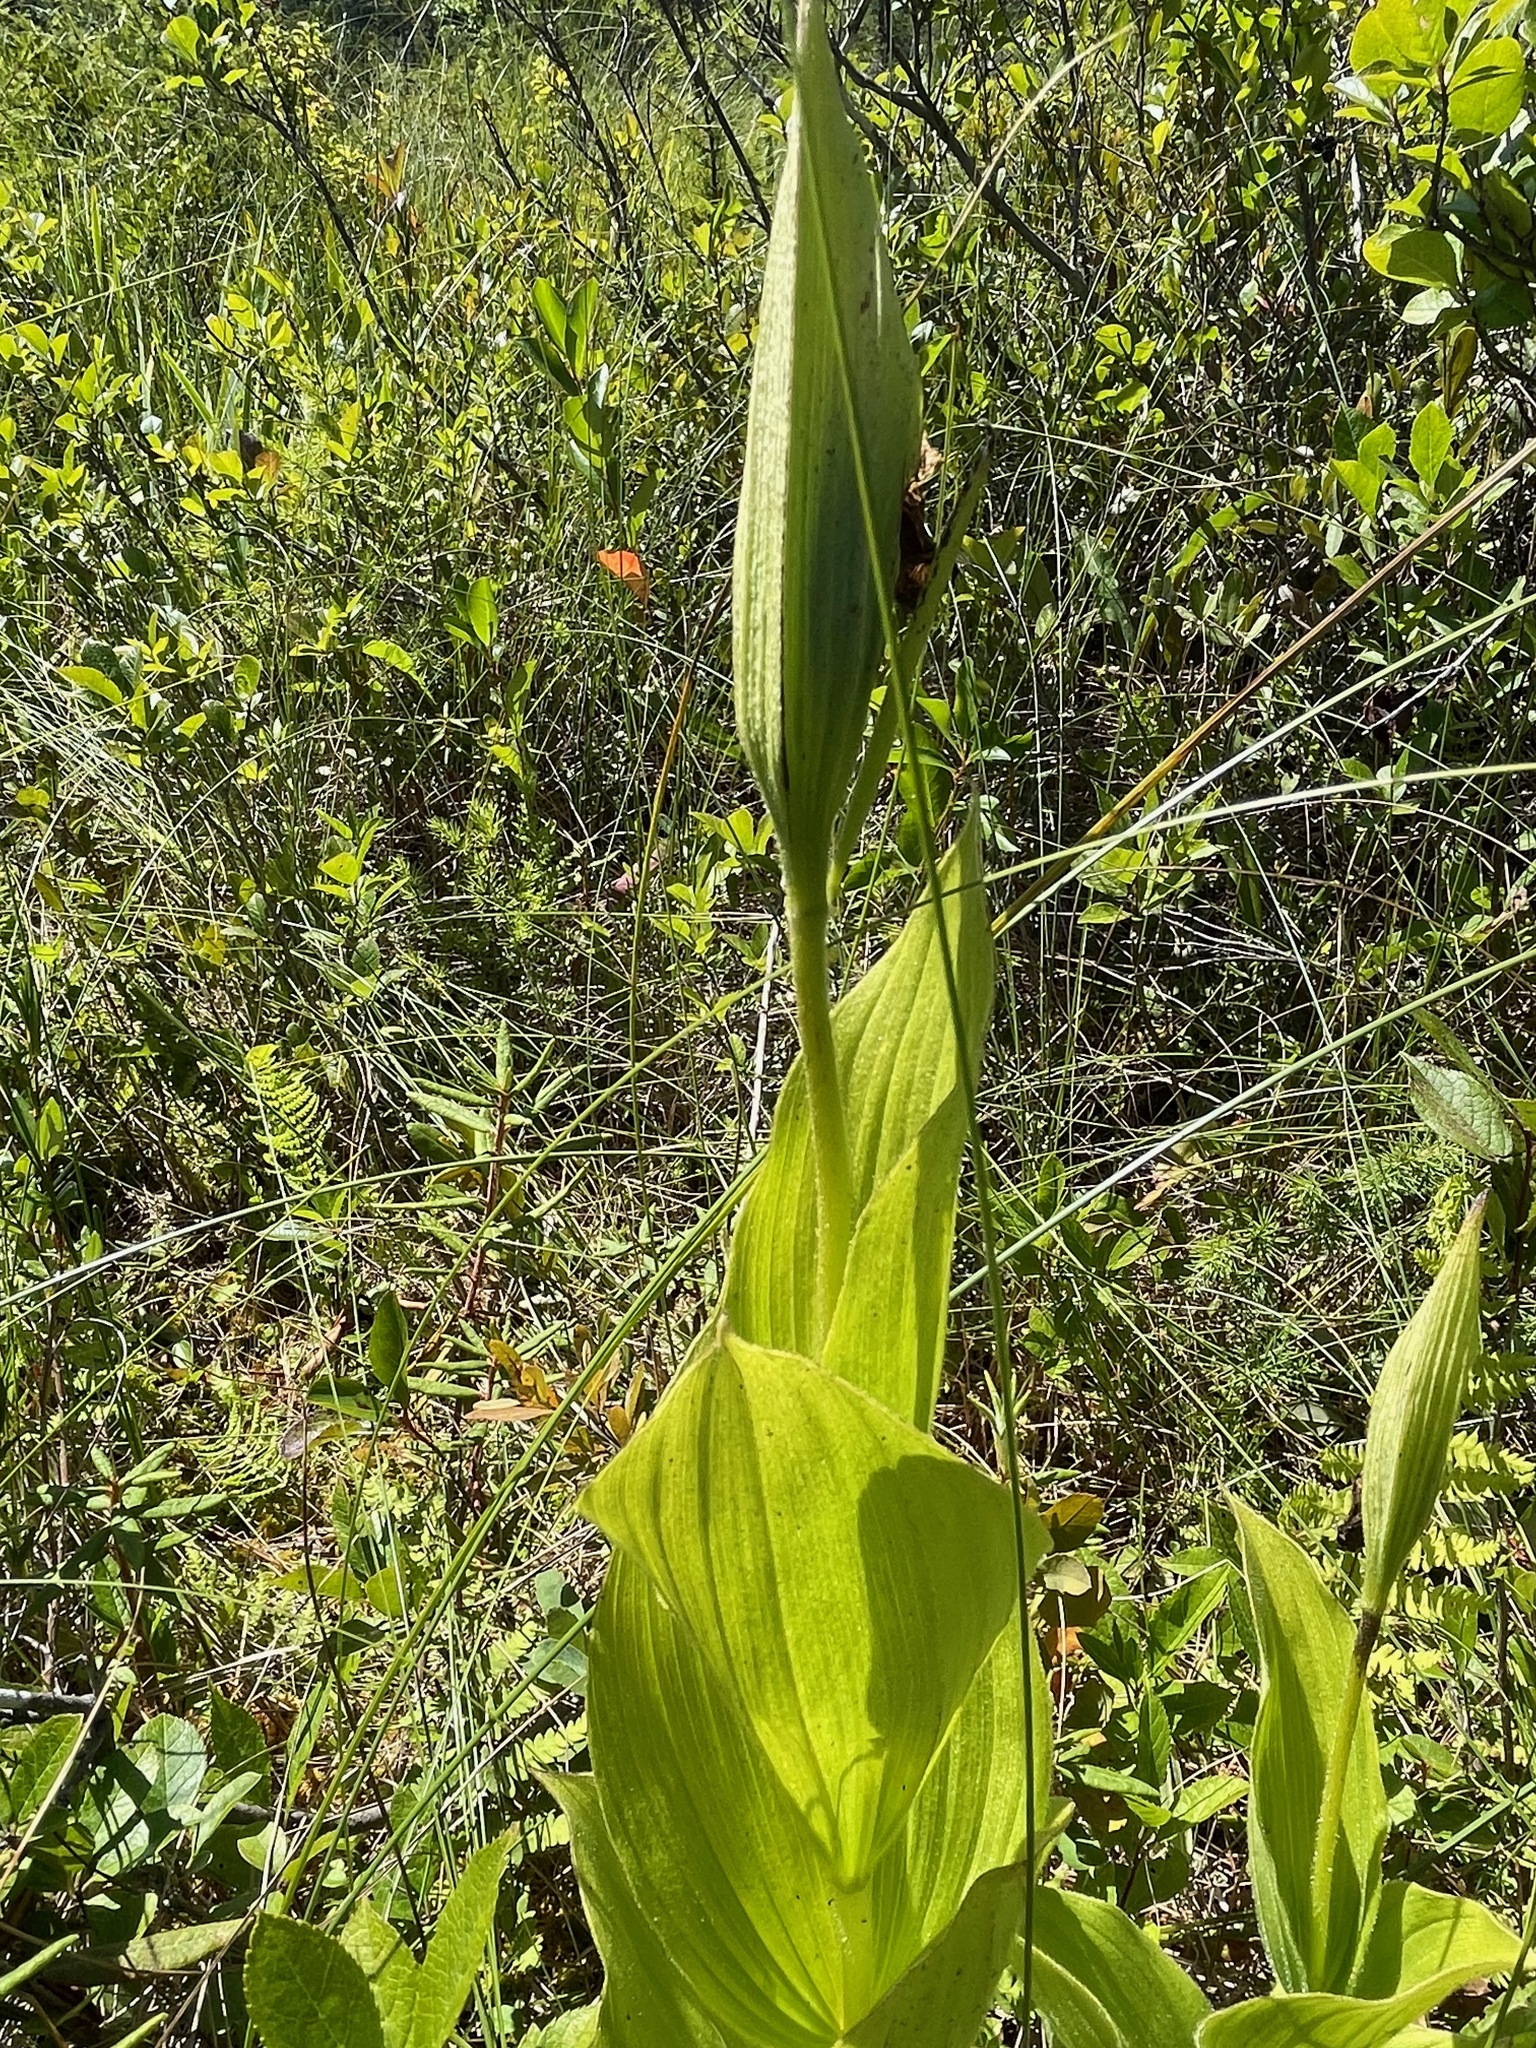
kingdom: Plantae
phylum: Tracheophyta
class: Liliopsida
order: Asparagales
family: Orchidaceae
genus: Cypripedium
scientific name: Cypripedium reginae
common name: Queen lady's-slipper
